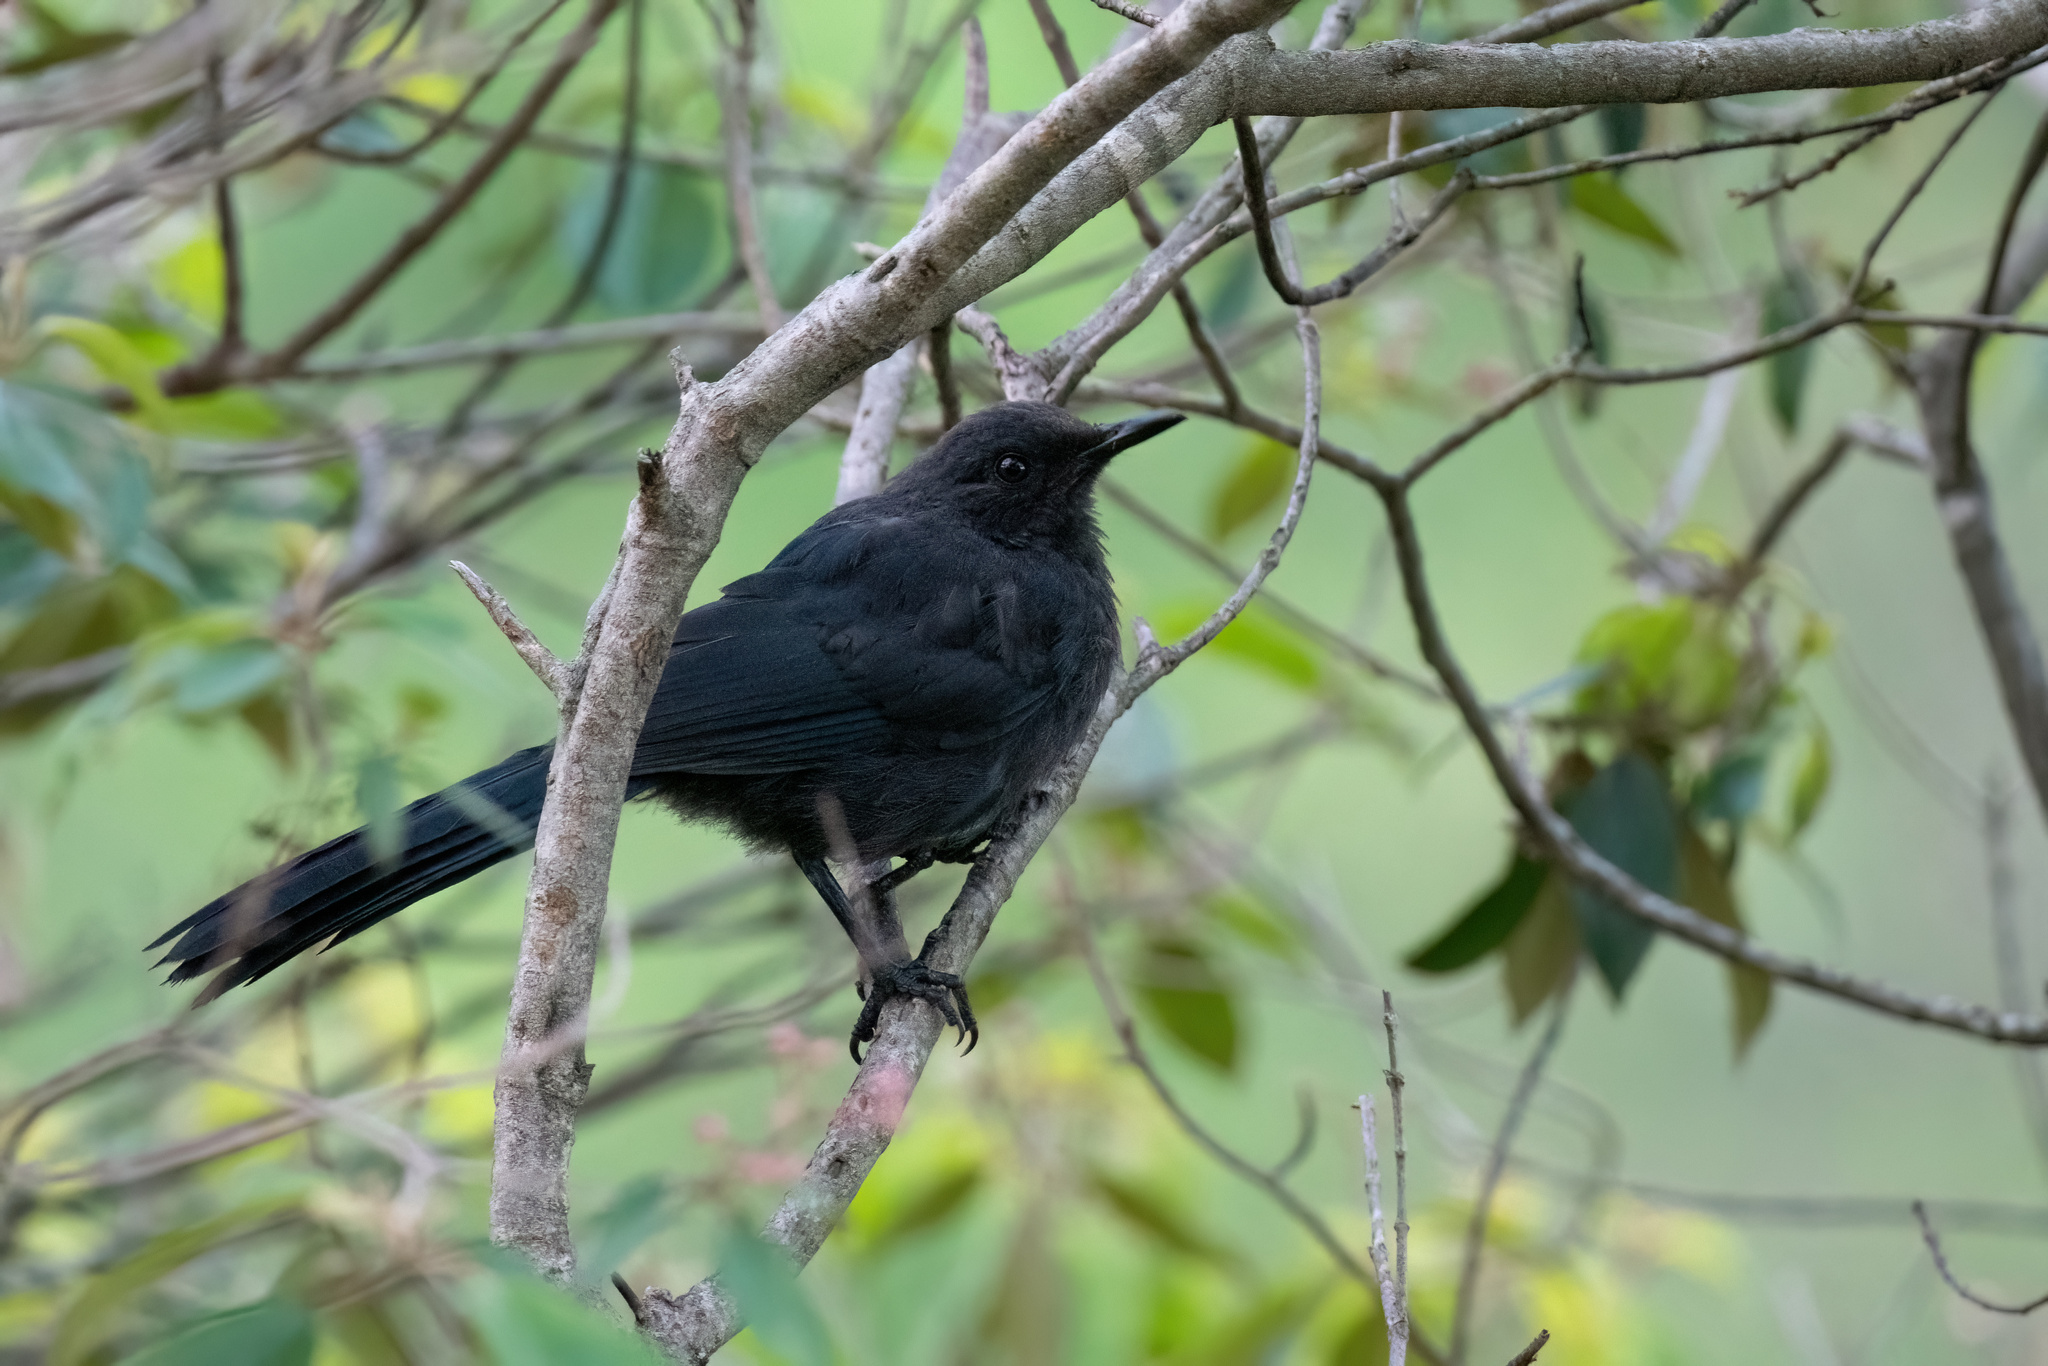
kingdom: Animalia
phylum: Chordata
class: Aves
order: Passeriformes
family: Mimidae
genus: Melanotis
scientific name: Melanotis caerulescens
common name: Blue mockingbird
